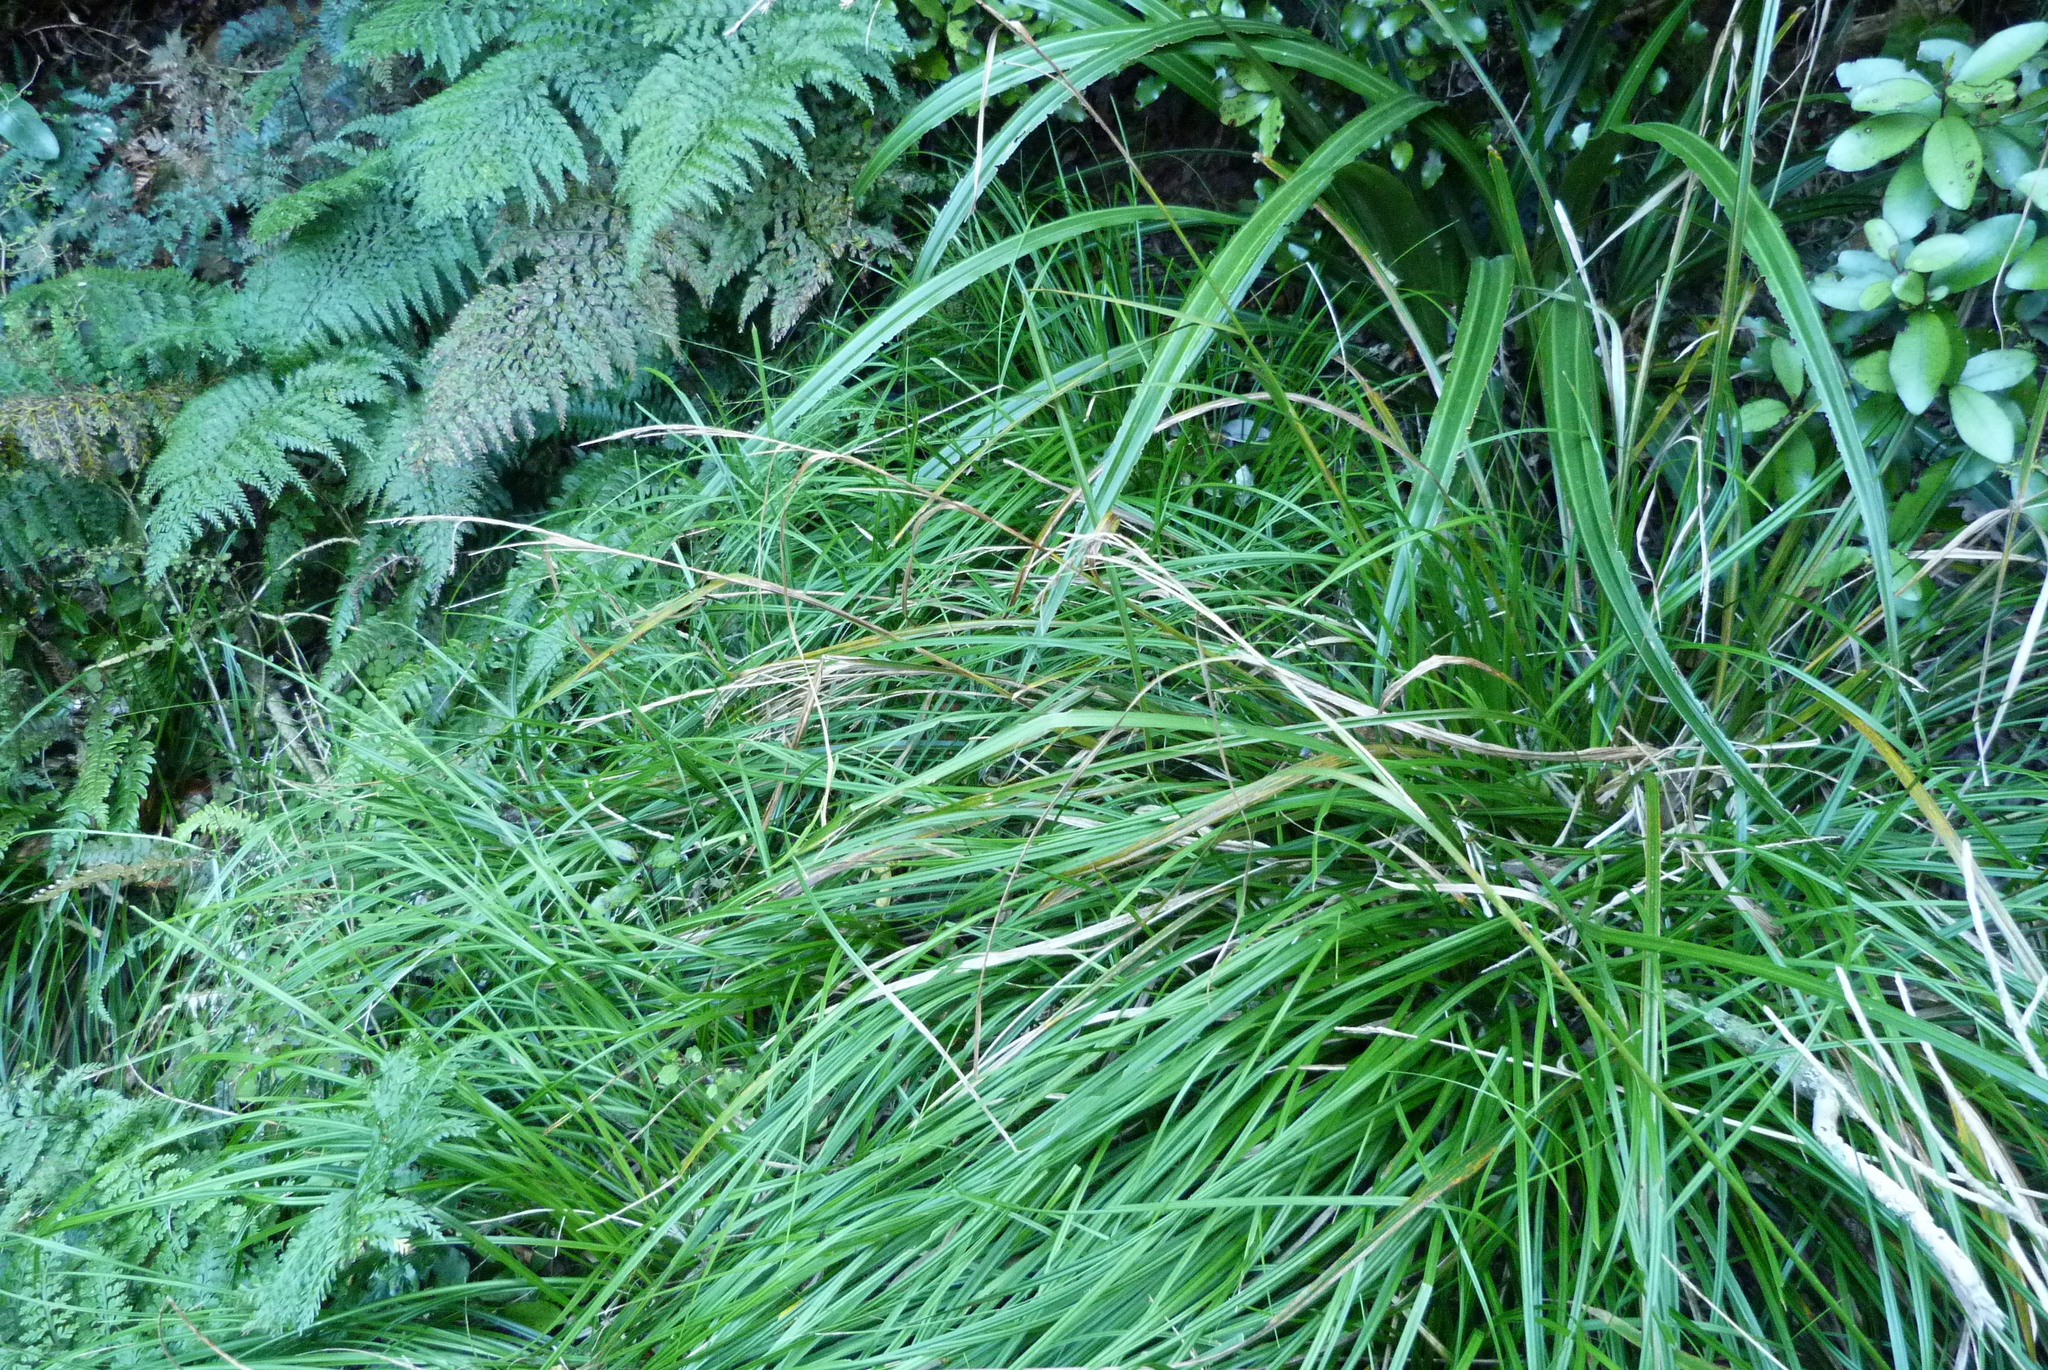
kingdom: Plantae
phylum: Tracheophyta
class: Liliopsida
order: Poales
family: Cyperaceae
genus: Carex
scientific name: Carex solandri
